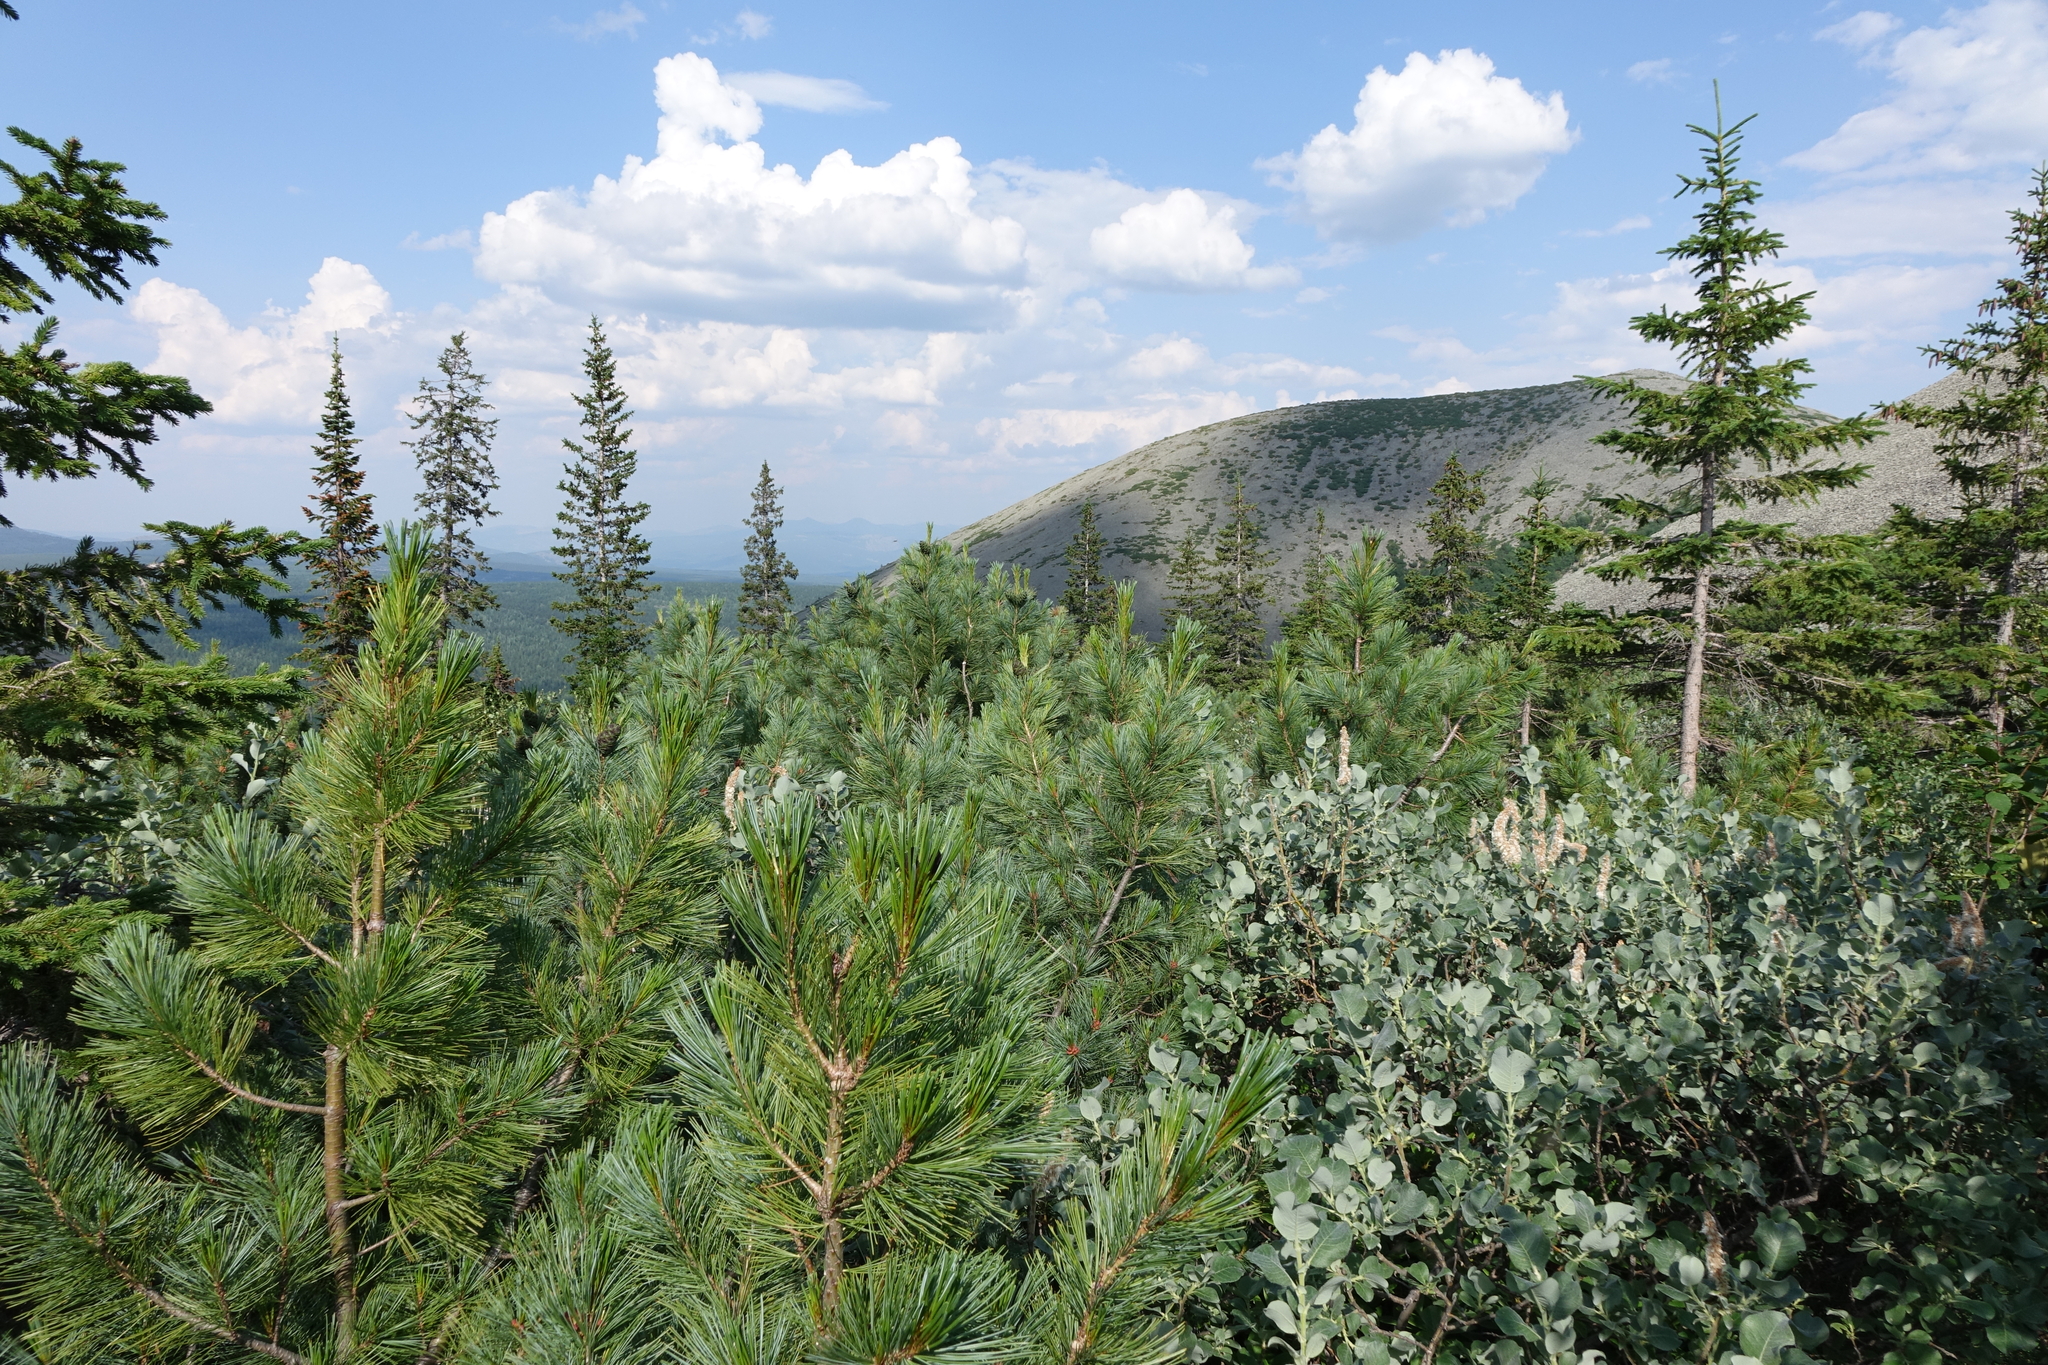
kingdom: Plantae
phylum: Tracheophyta
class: Pinopsida
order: Pinales
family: Pinaceae
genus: Pinus
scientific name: Pinus pumila
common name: Dwarf siberian pine
